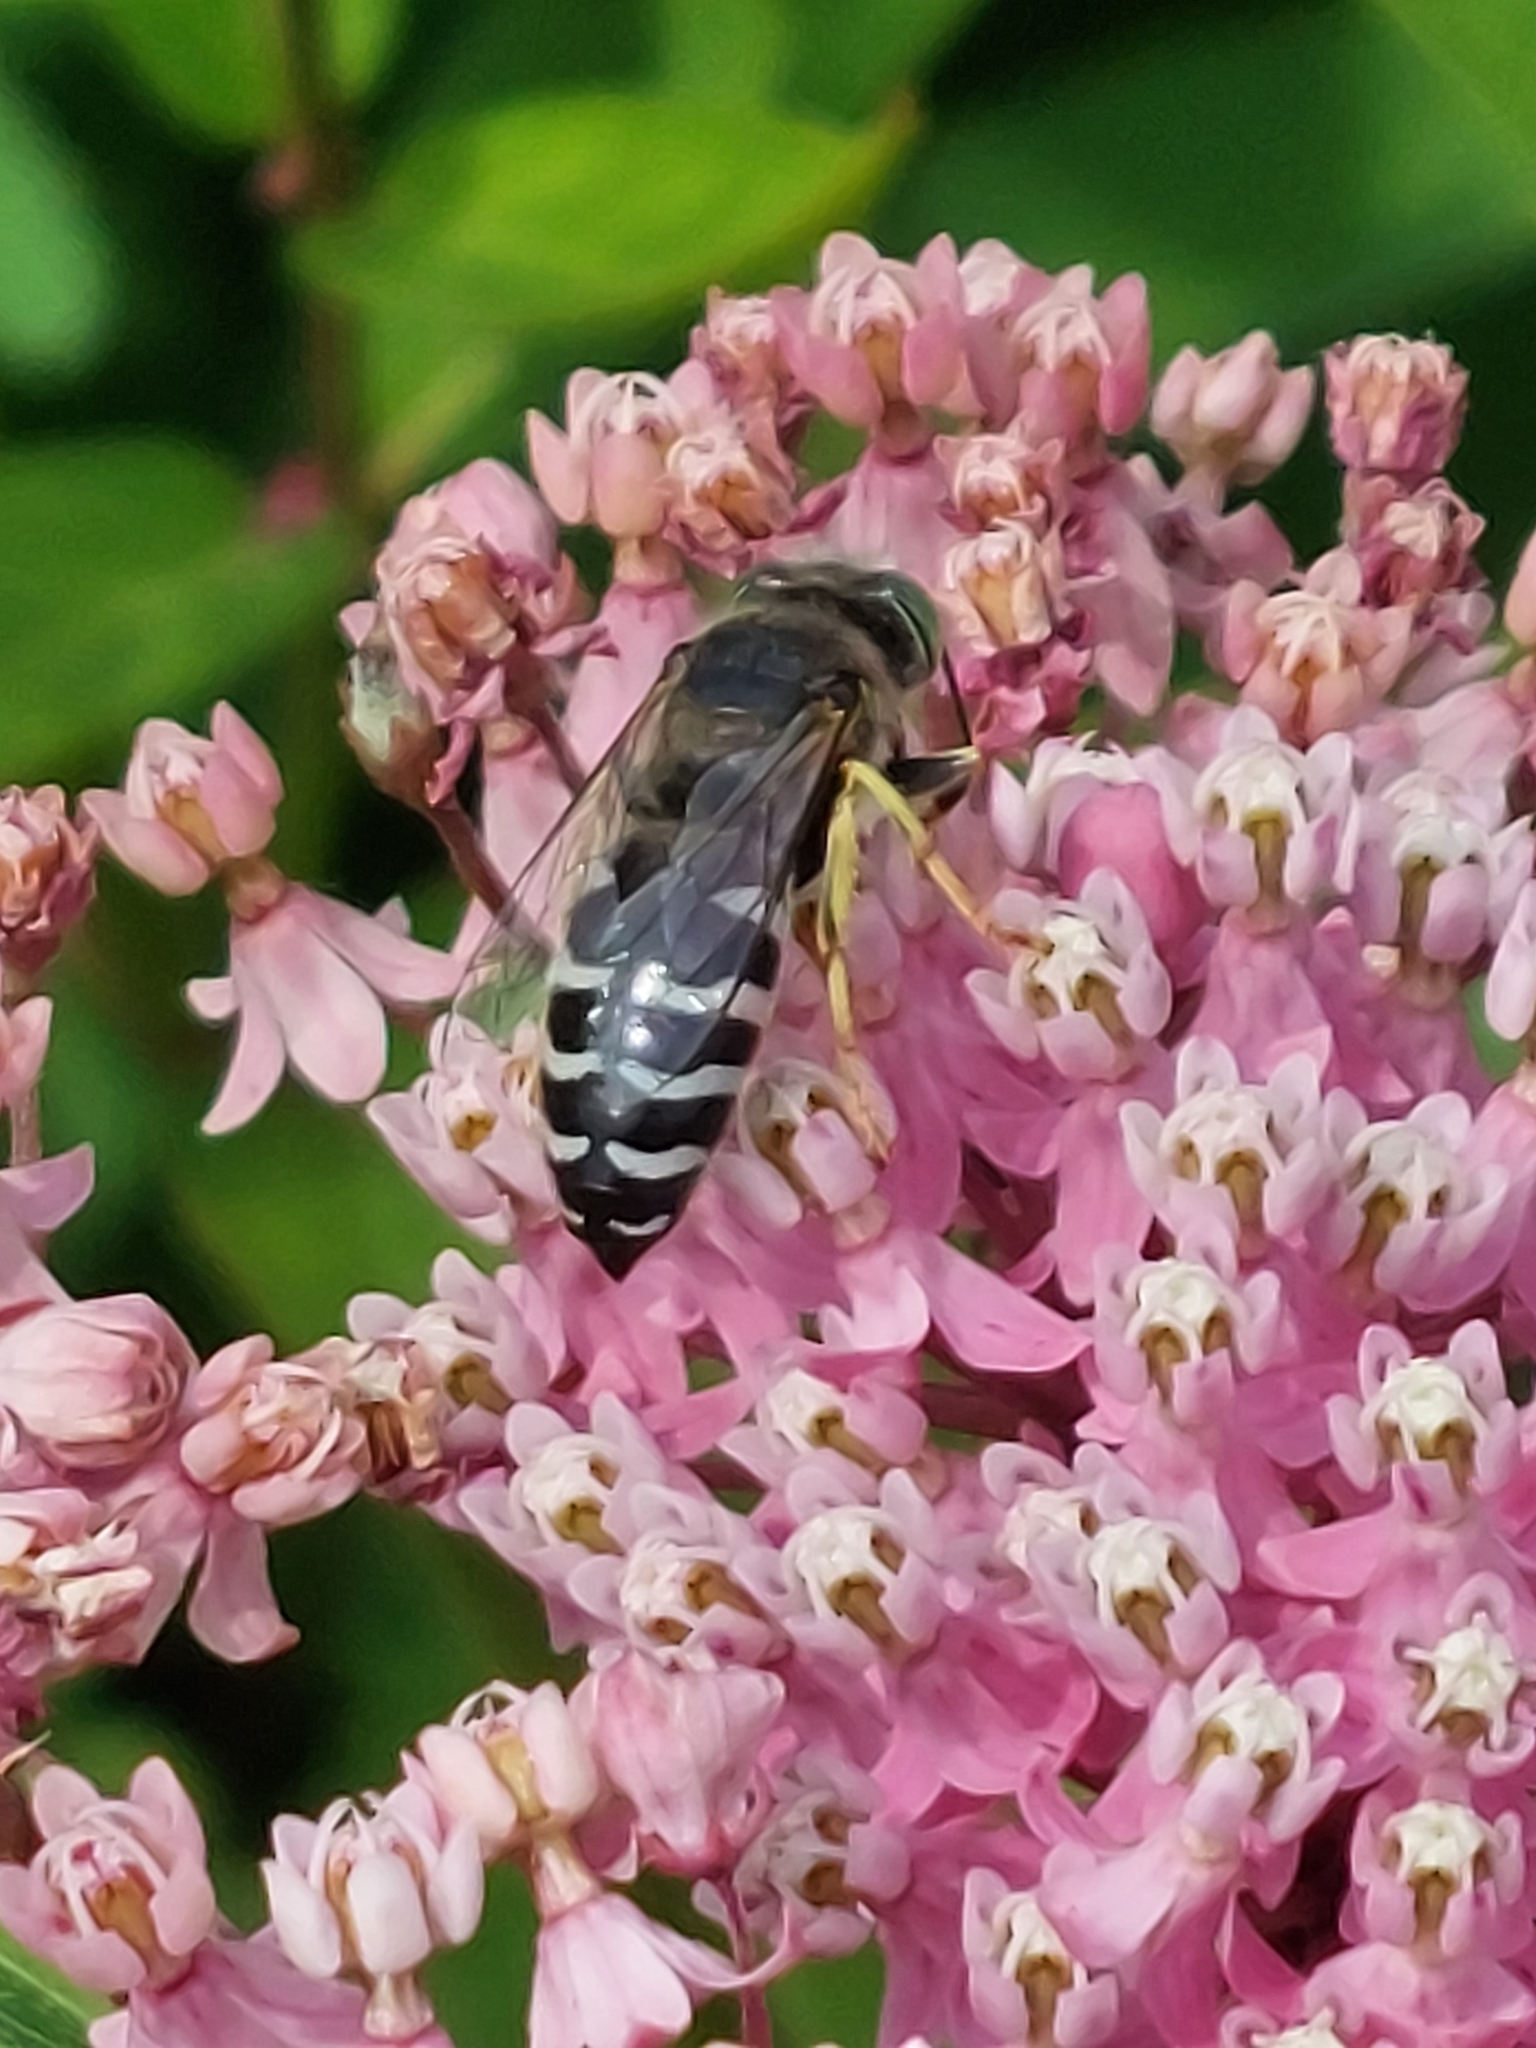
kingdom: Animalia
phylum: Arthropoda
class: Insecta
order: Hymenoptera
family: Crabronidae
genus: Bembix
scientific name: Bembix americana
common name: American sand wasp
